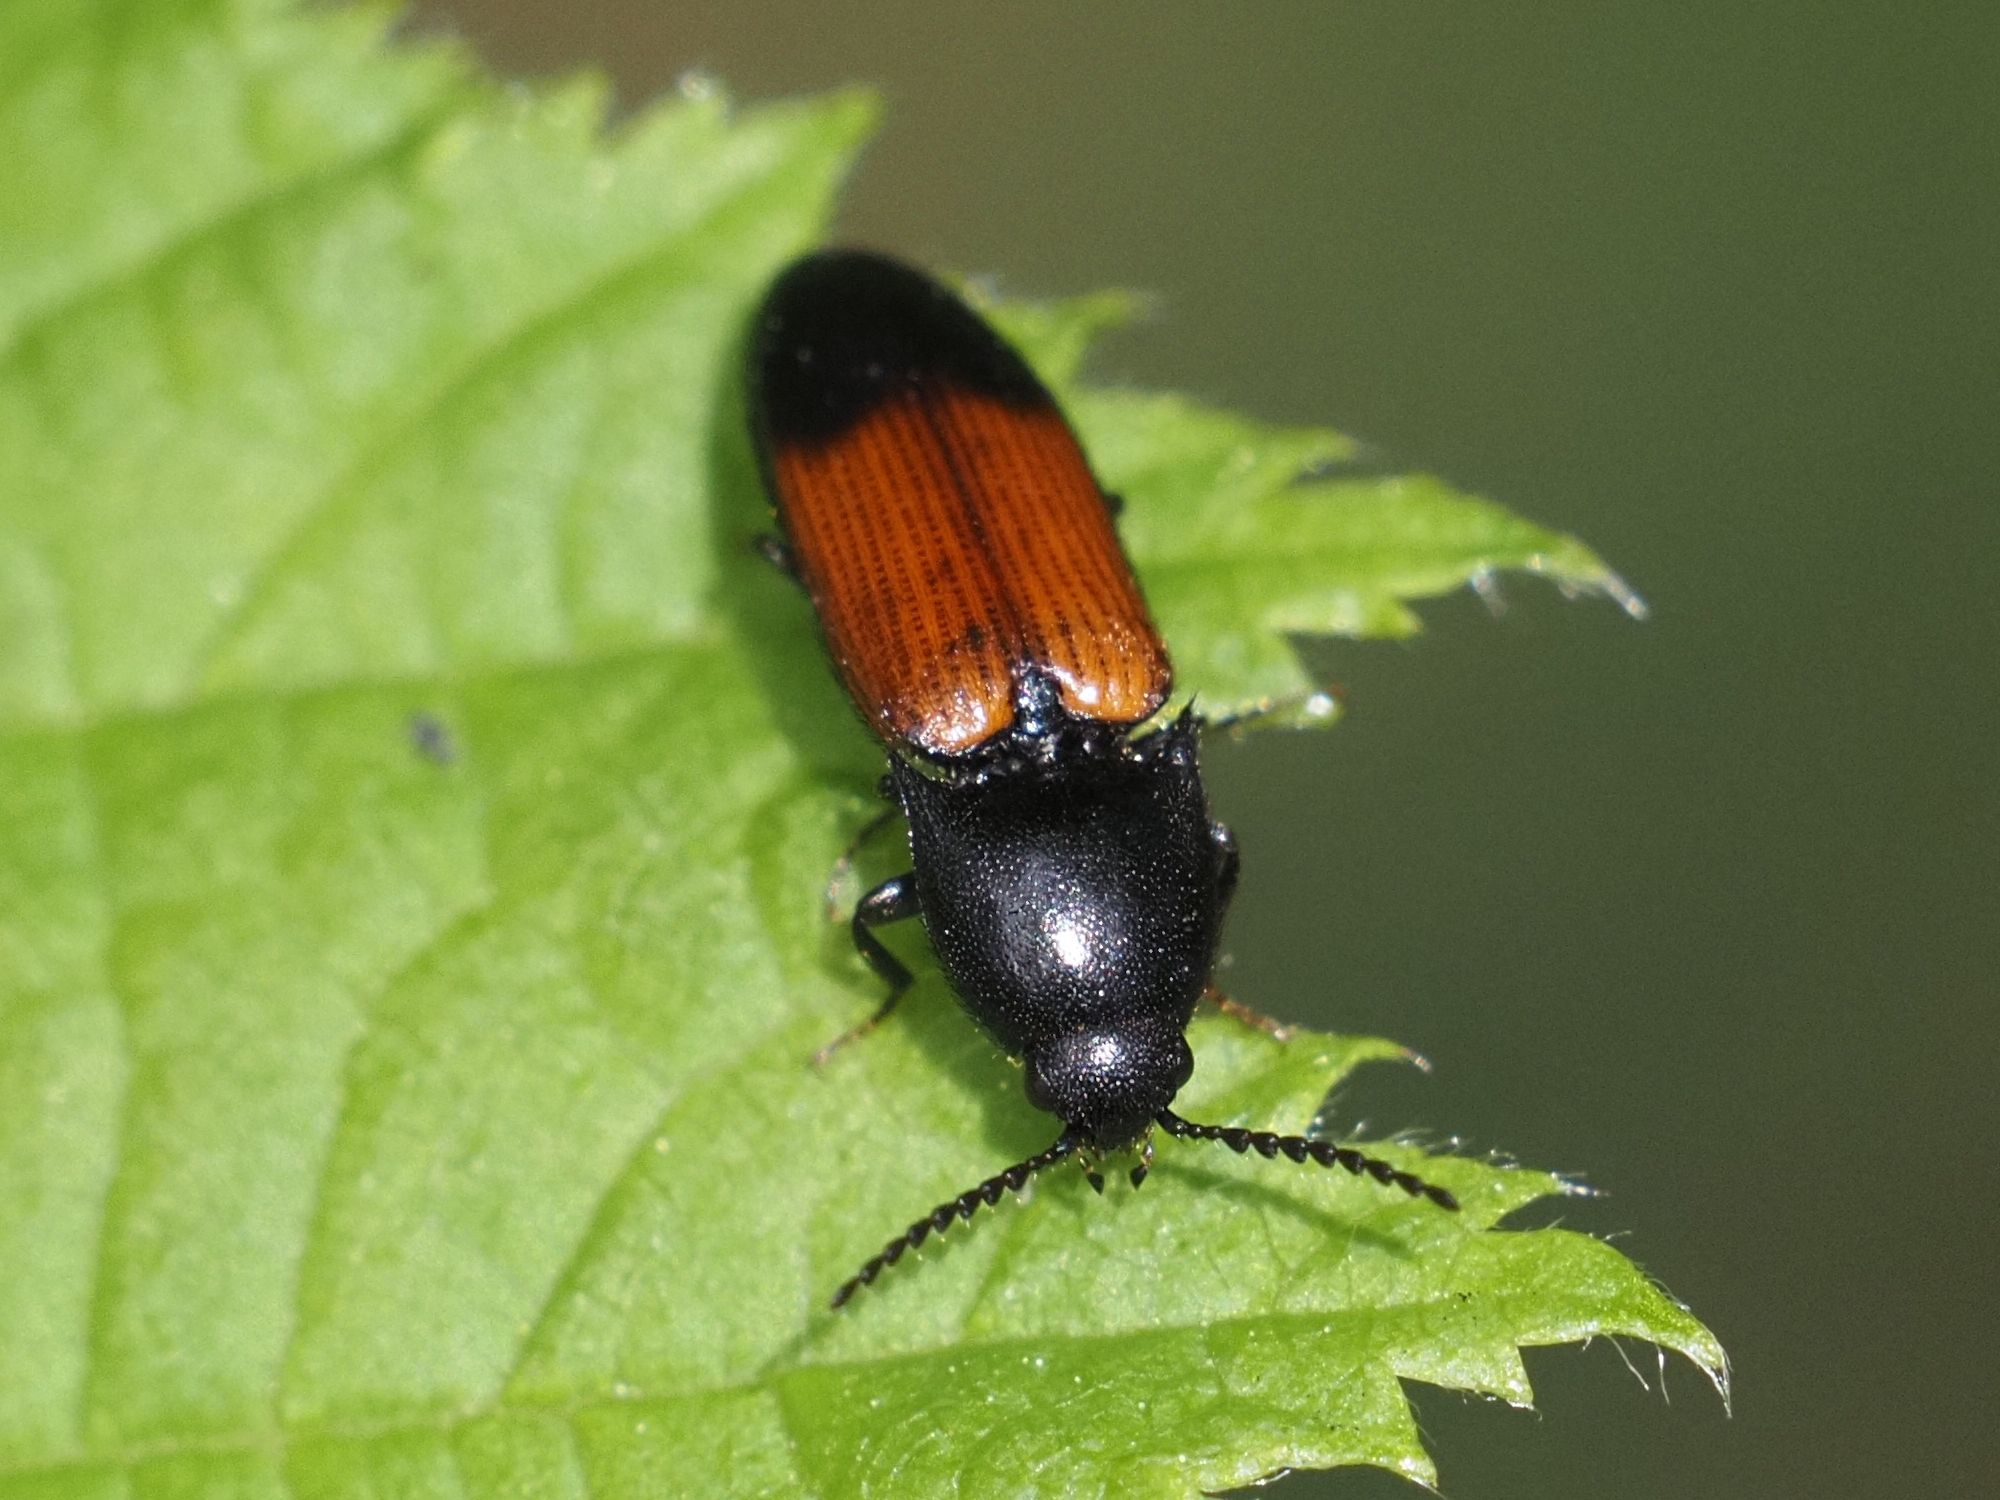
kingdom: Animalia
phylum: Arthropoda
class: Insecta
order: Coleoptera
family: Elateridae
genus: Ampedus
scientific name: Ampedus balteatus
